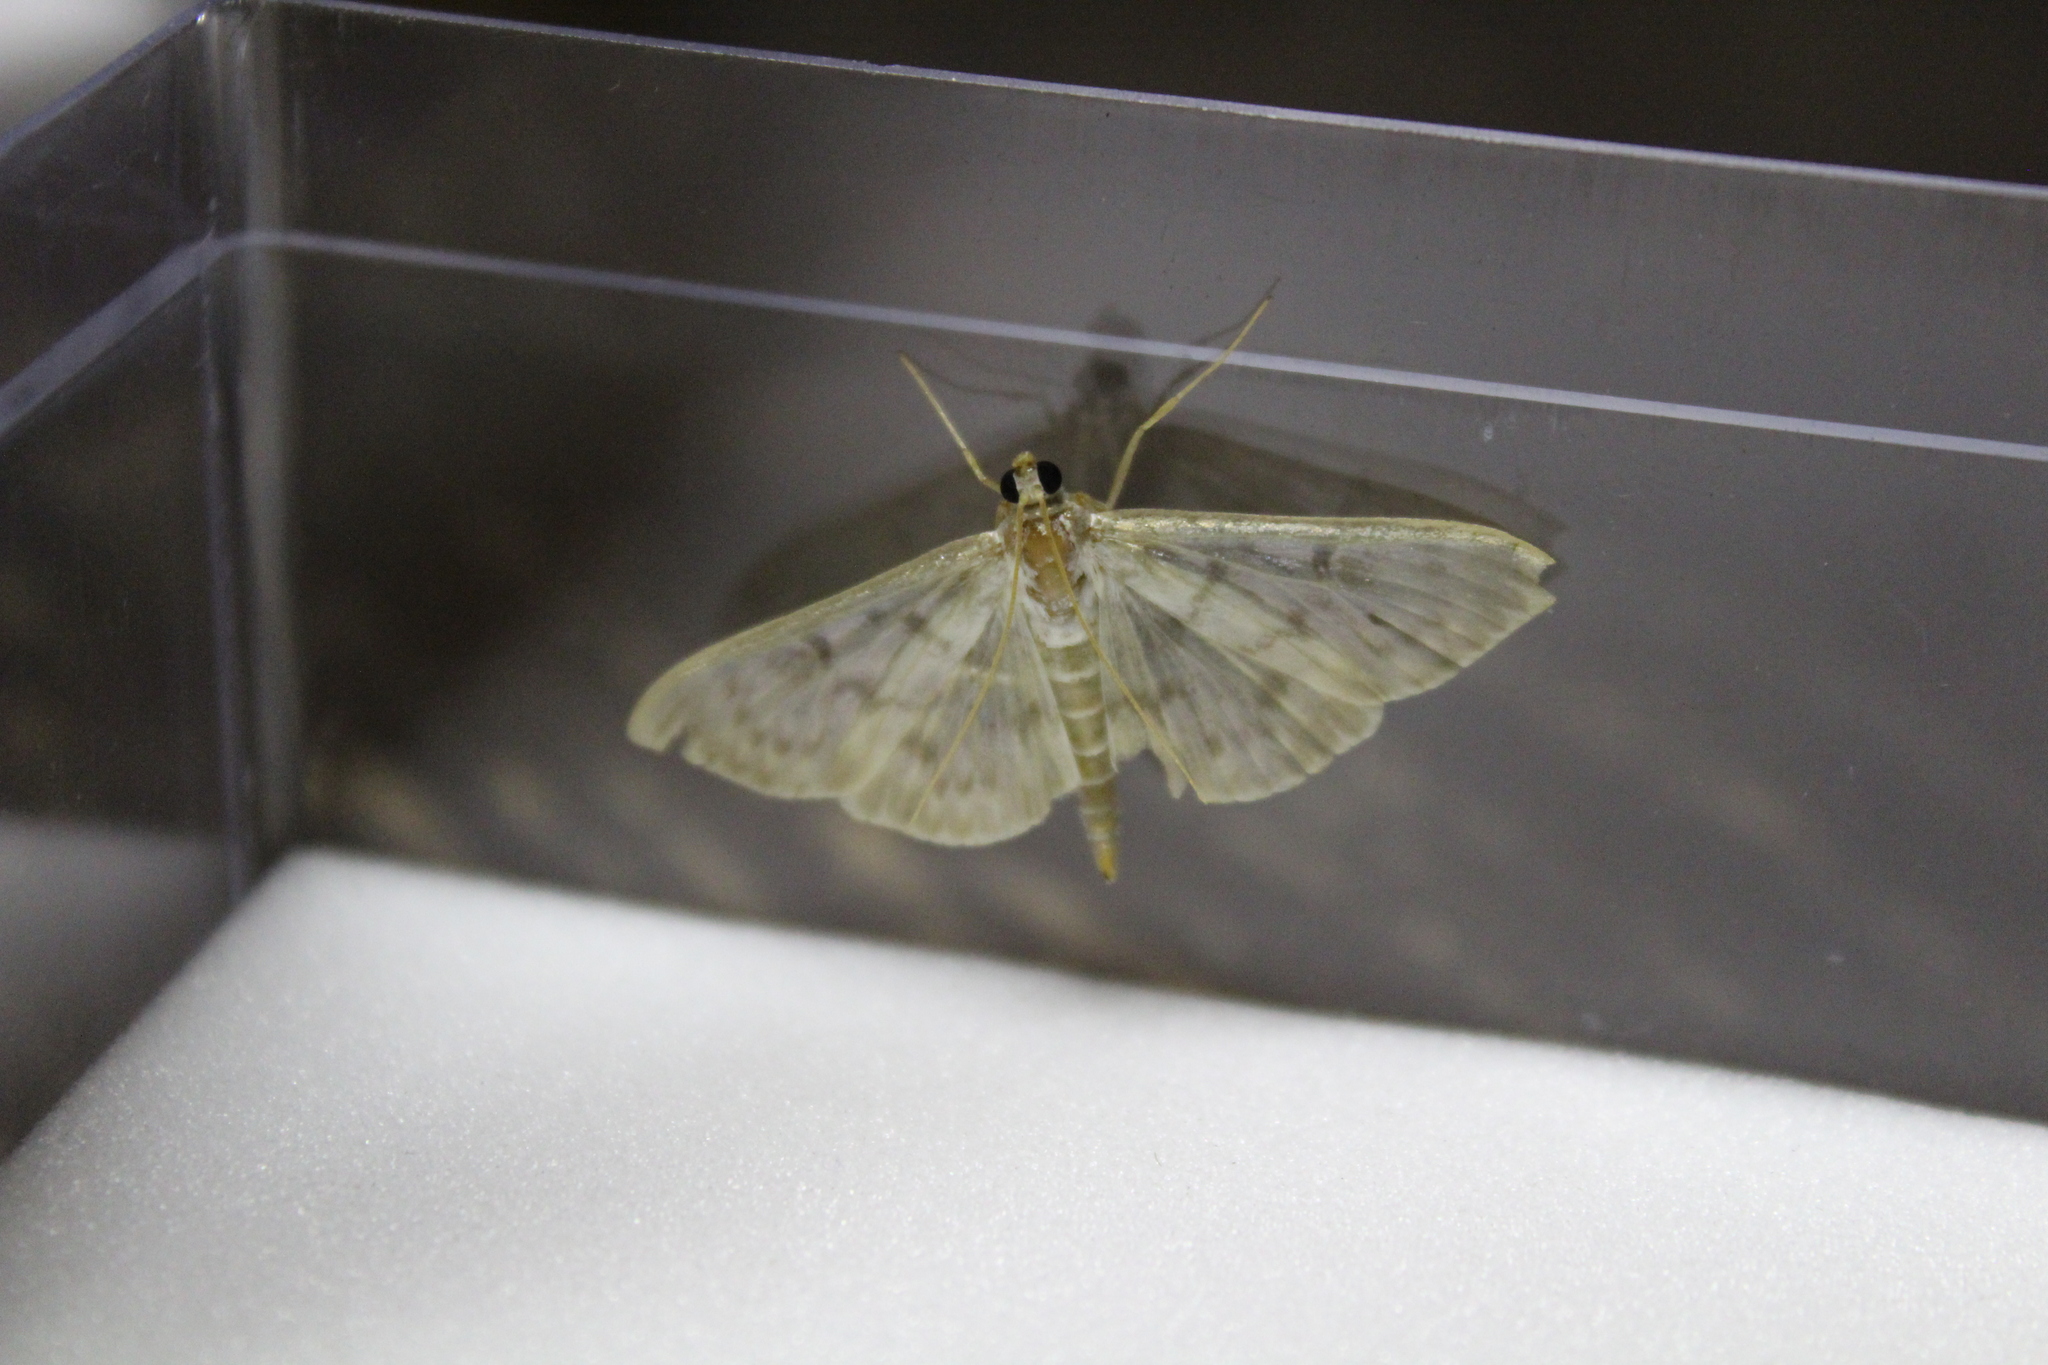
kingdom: Animalia
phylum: Arthropoda
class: Insecta
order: Lepidoptera
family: Crambidae
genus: Patania
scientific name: Patania ruralis
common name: Mother of pearl
